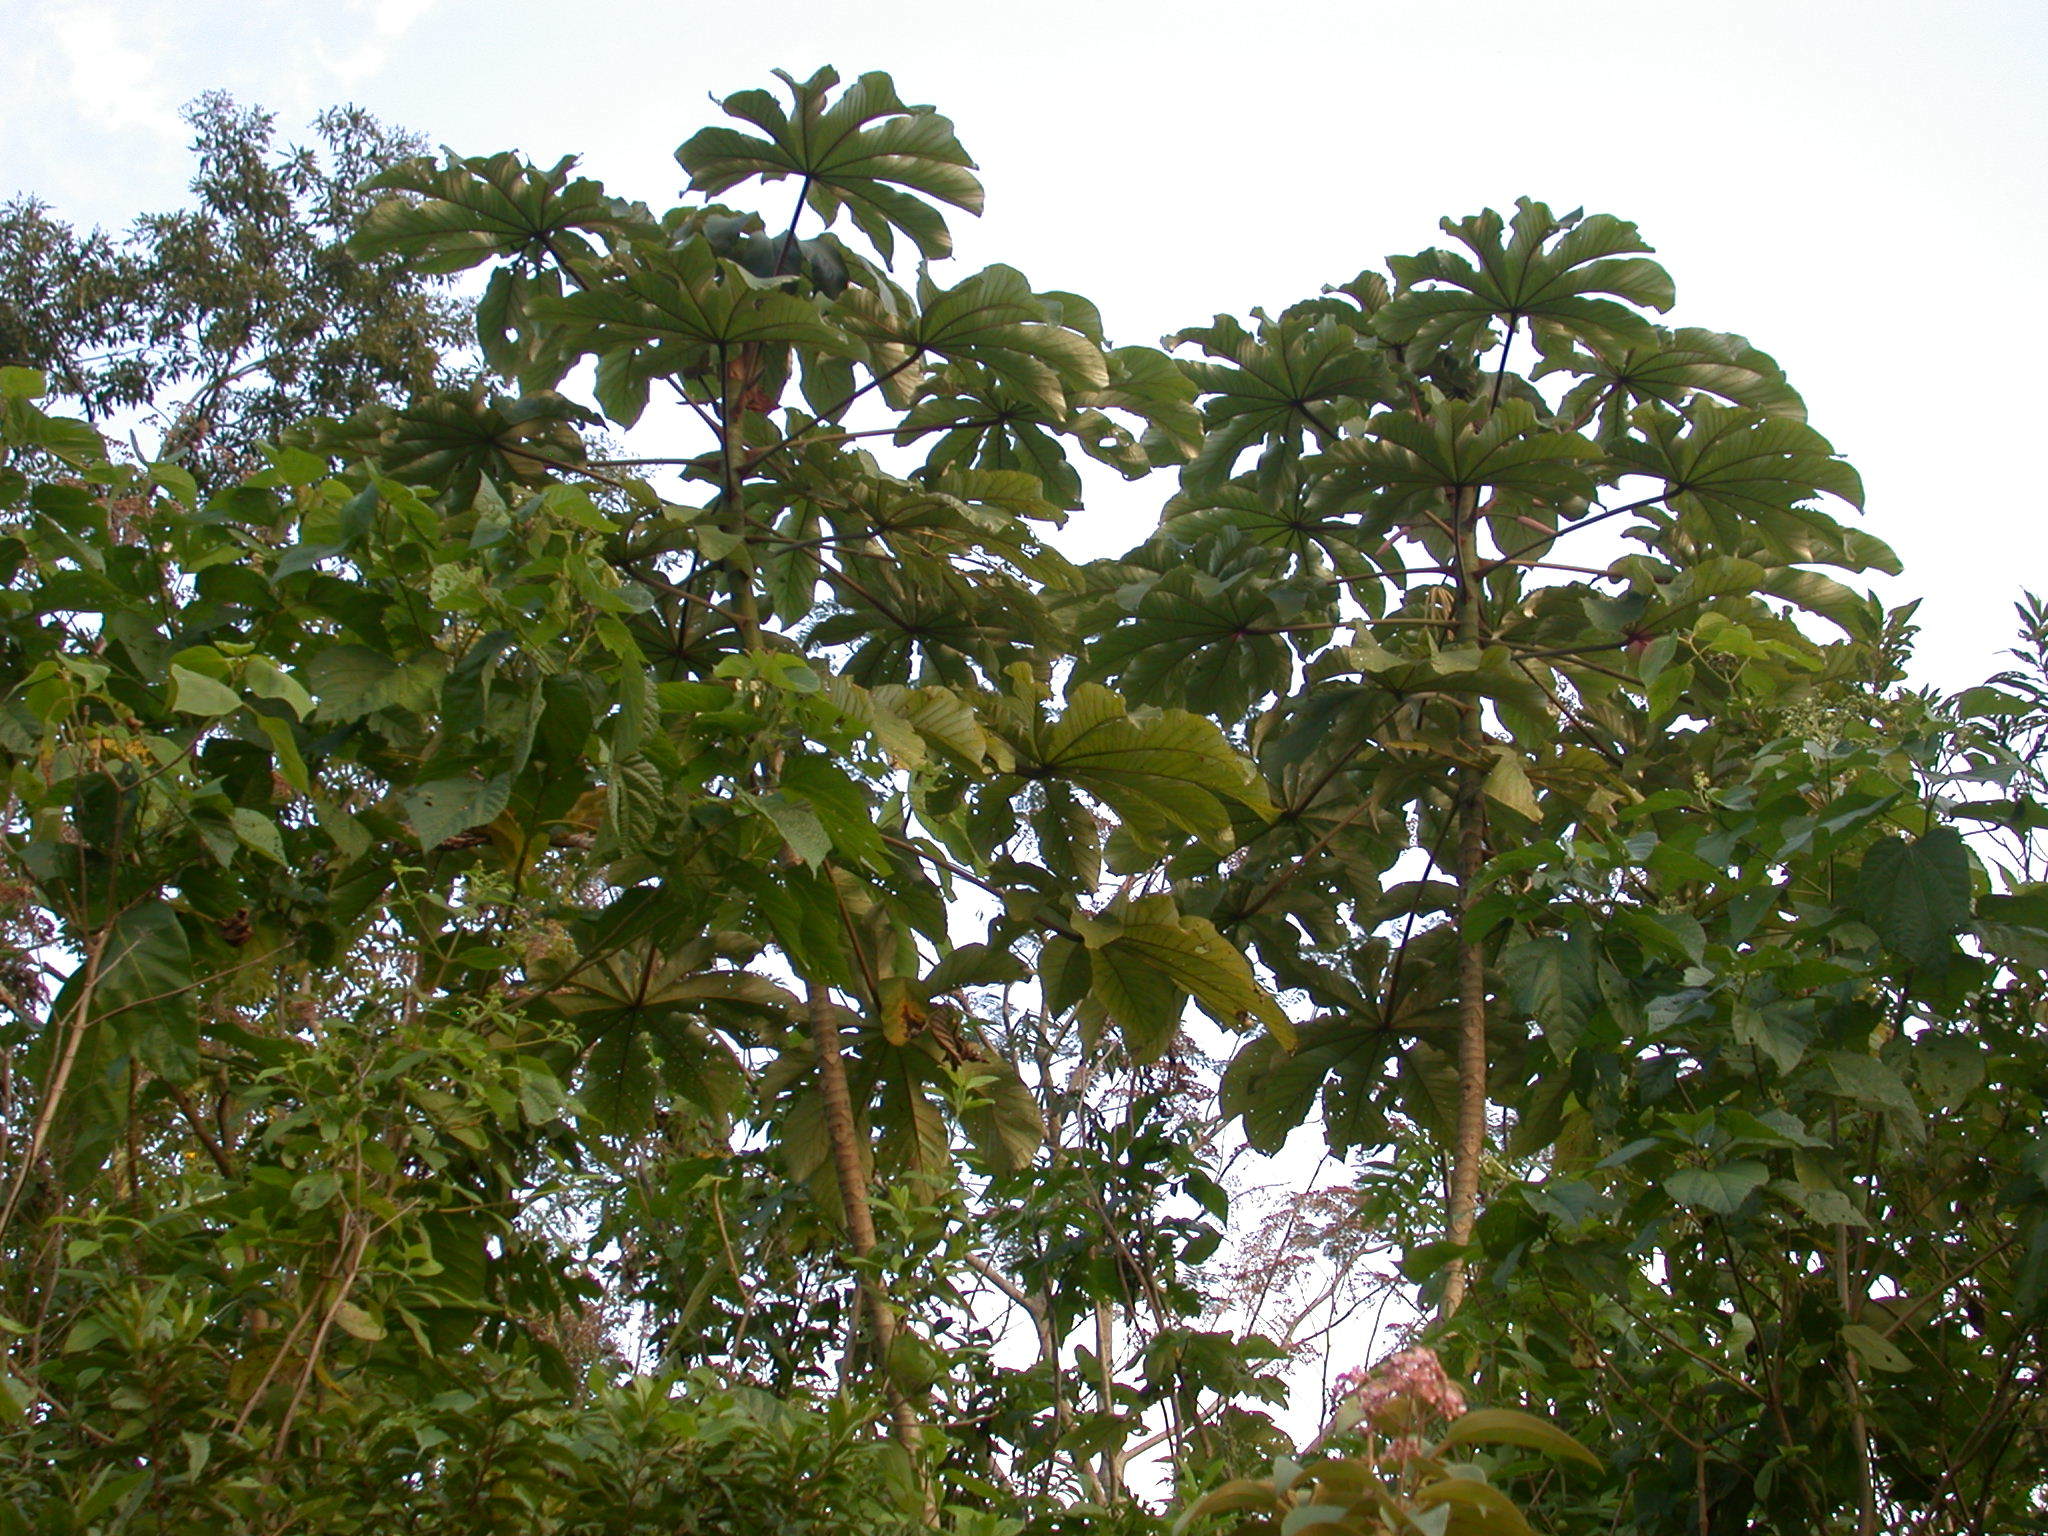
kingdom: Plantae
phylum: Tracheophyta
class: Magnoliopsida
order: Rosales
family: Urticaceae
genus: Cecropia
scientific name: Cecropia obtusifolia
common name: Trumpet tree
